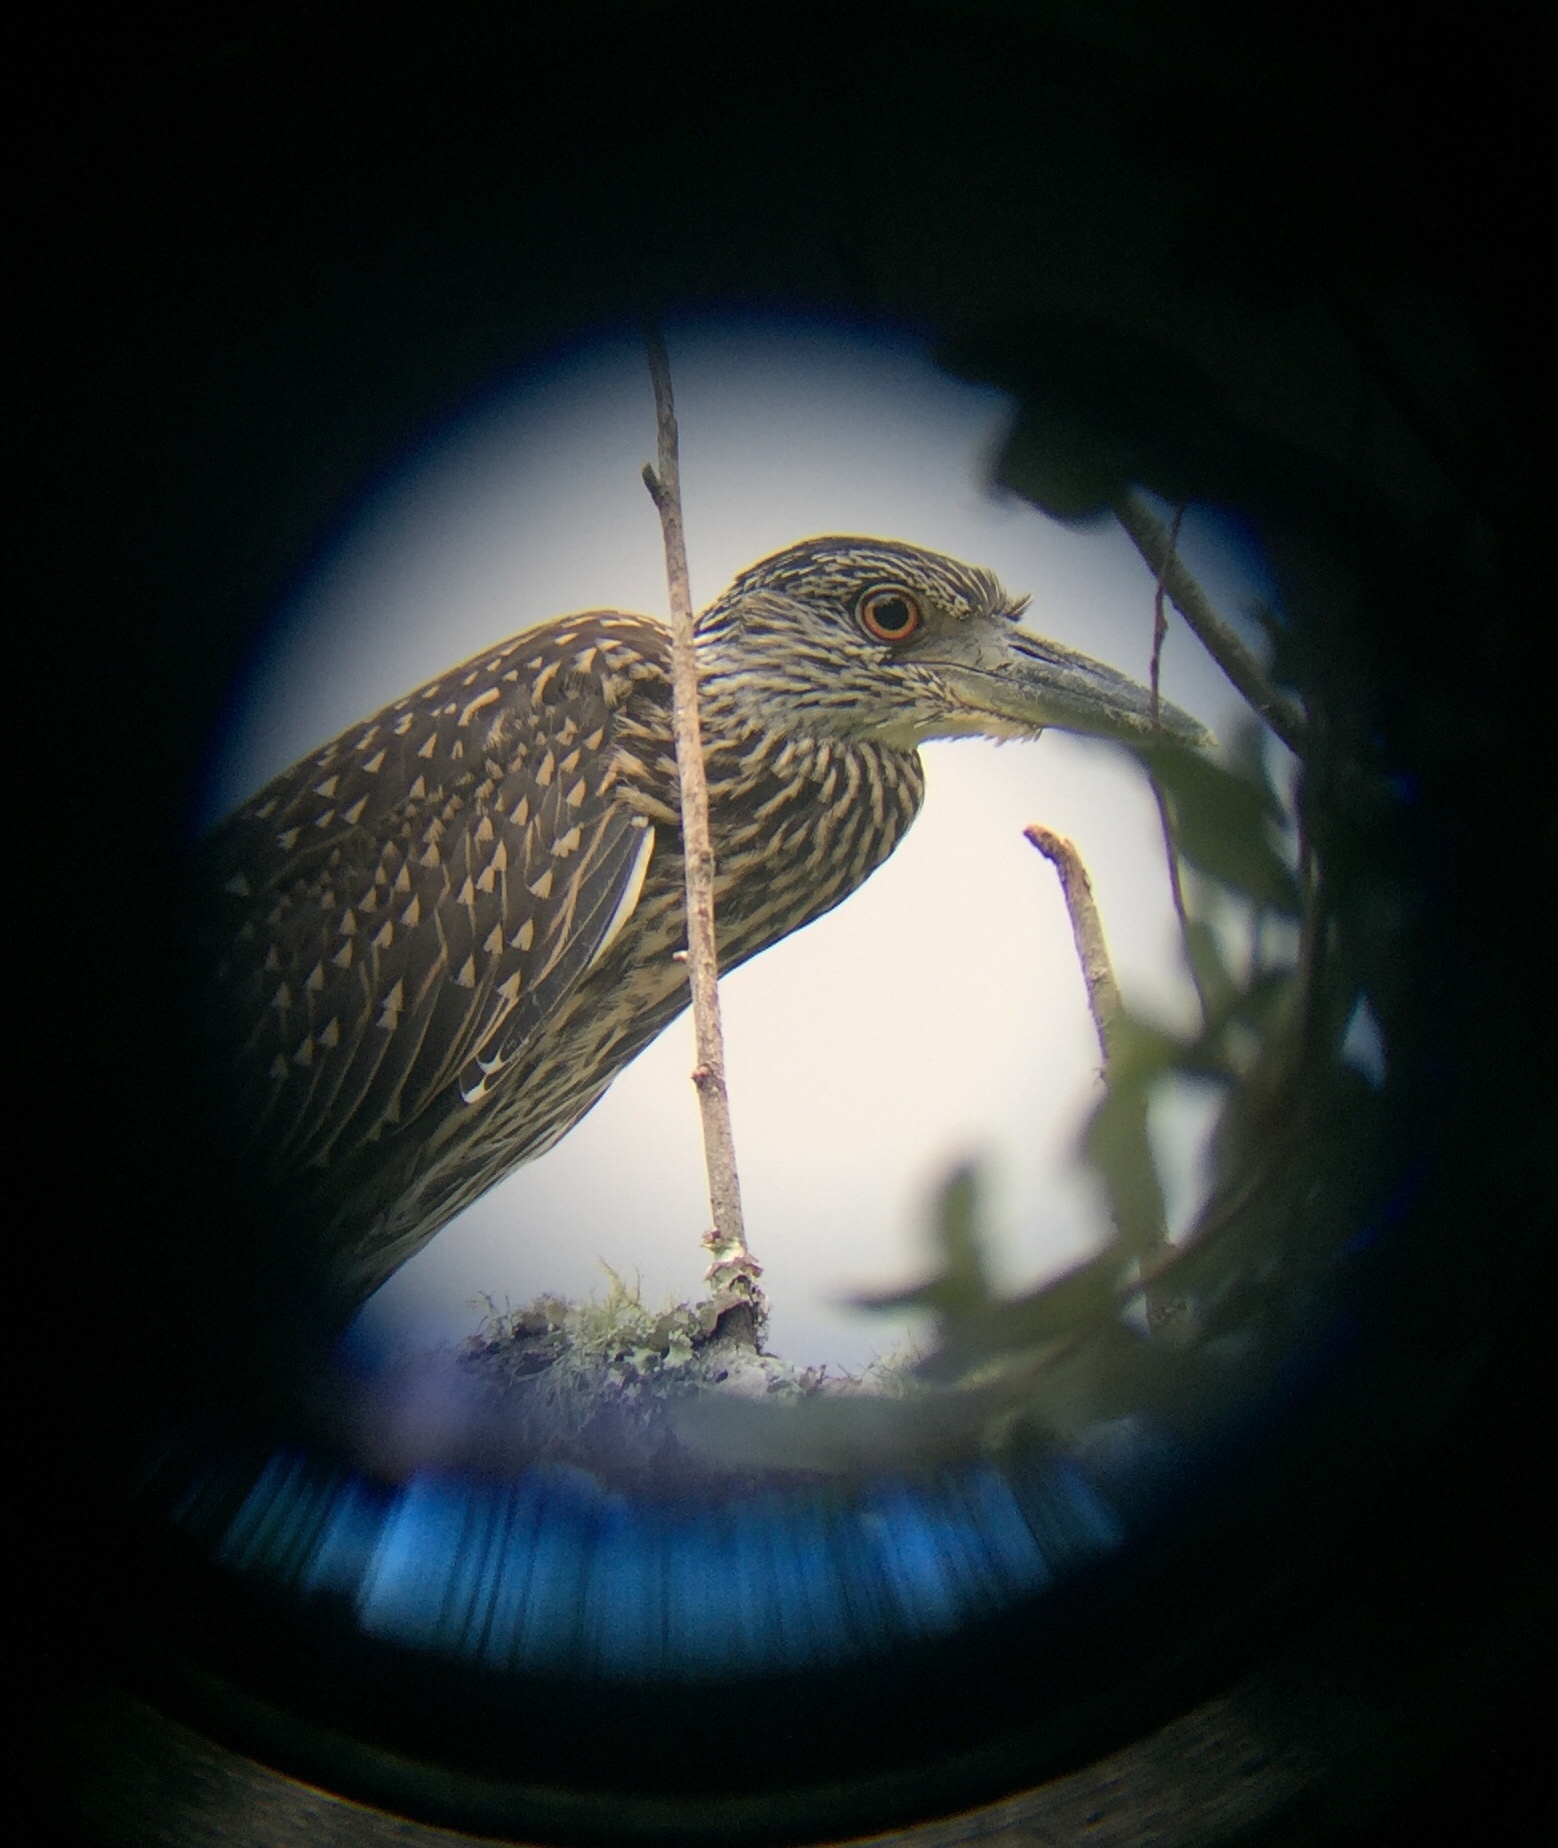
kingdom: Animalia
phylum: Chordata
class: Aves
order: Pelecaniformes
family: Ardeidae
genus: Nyctanassa
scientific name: Nyctanassa violacea
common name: Yellow-crowned night heron
